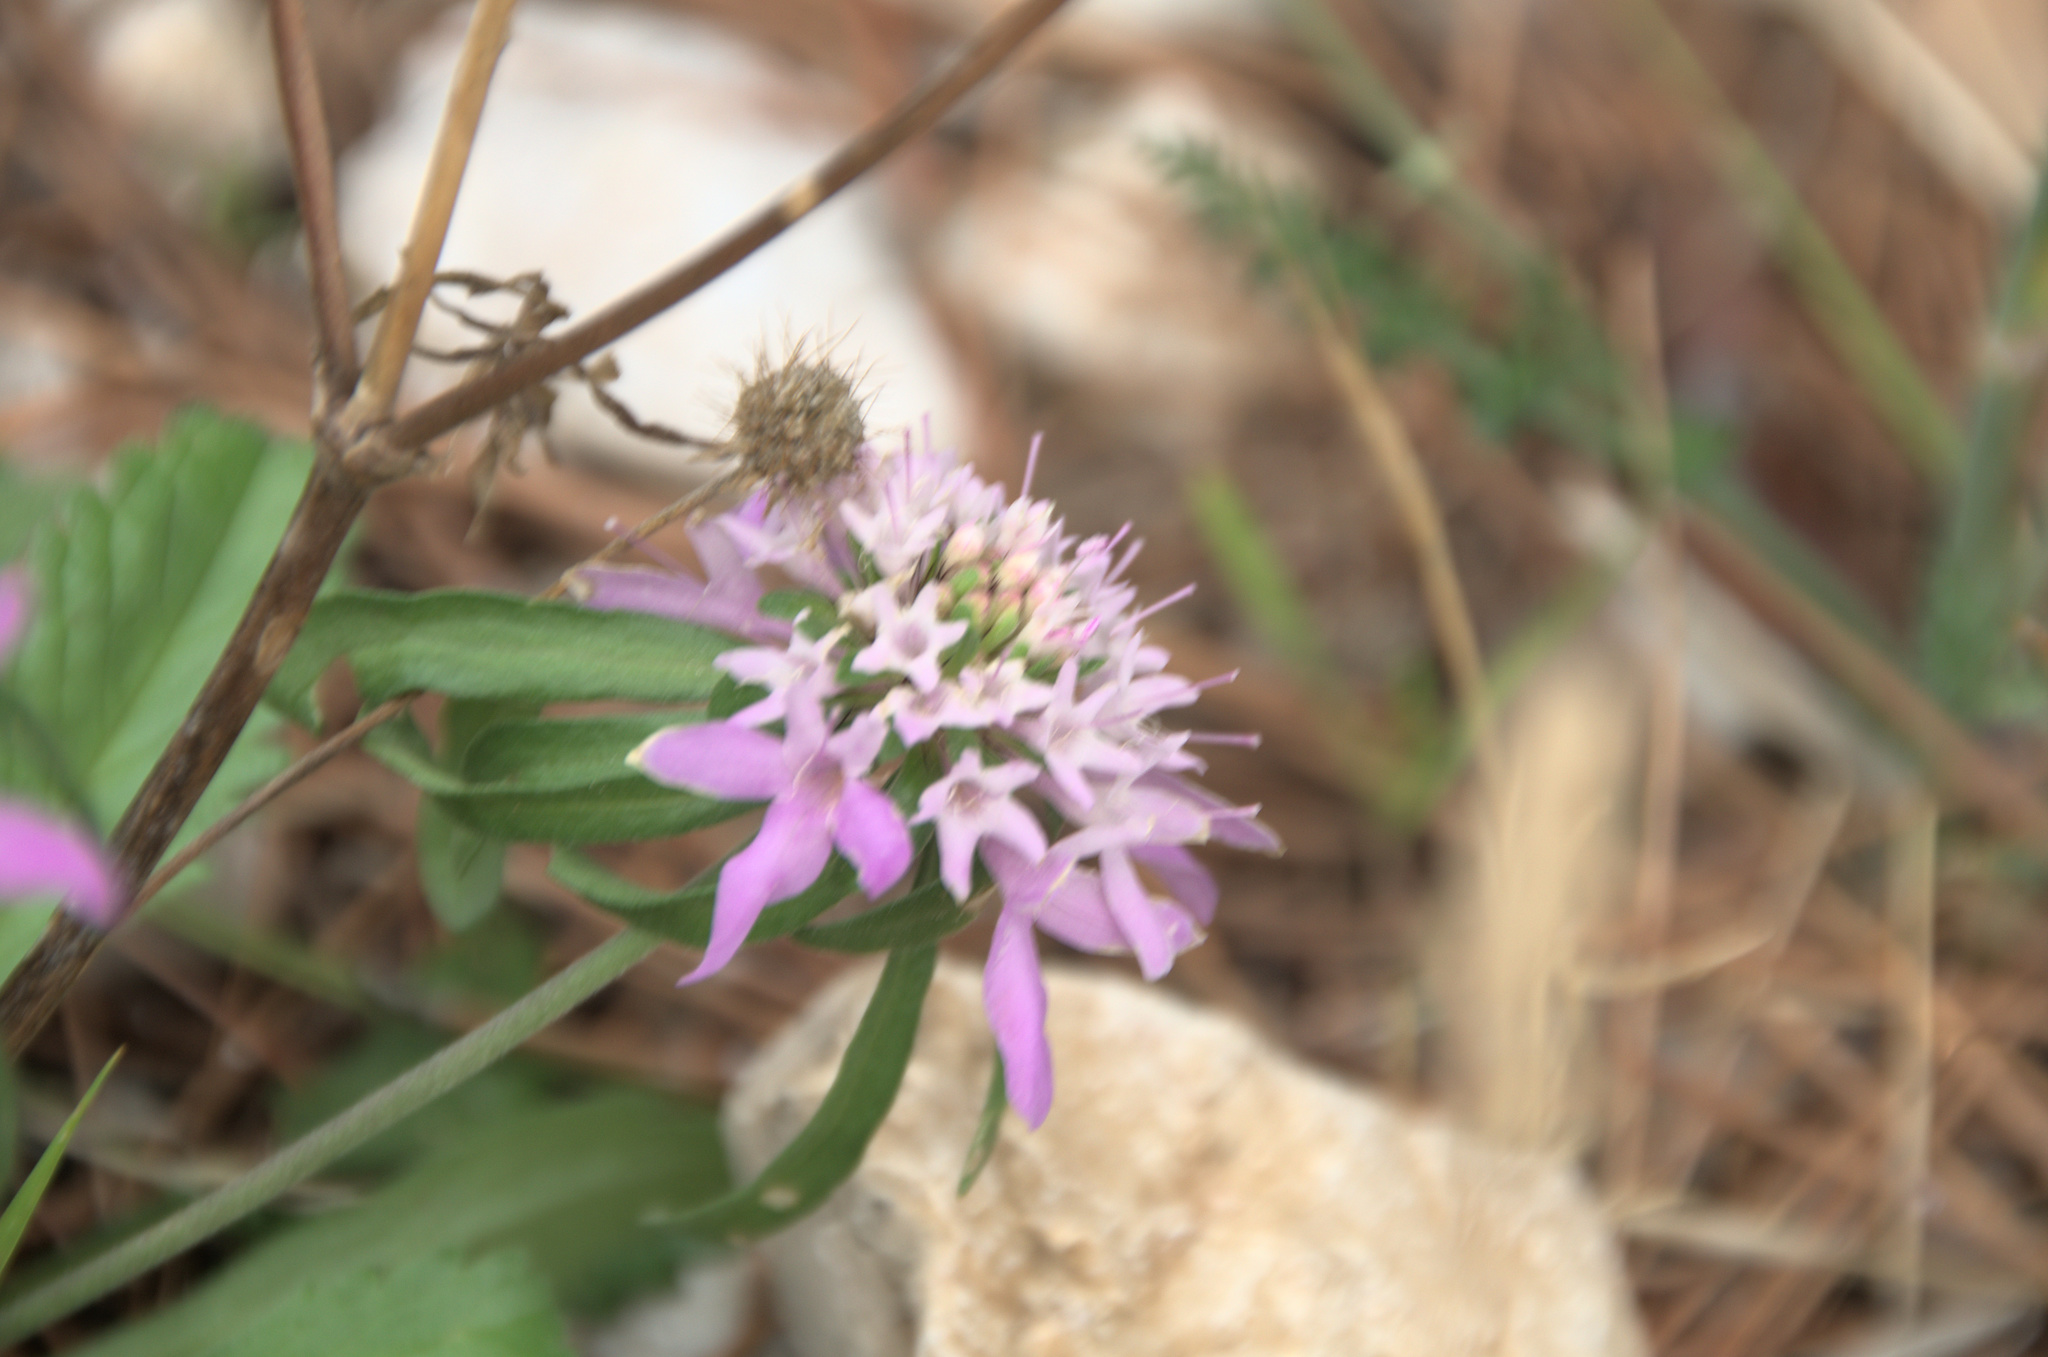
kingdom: Plantae
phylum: Tracheophyta
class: Magnoliopsida
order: Dipsacales
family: Caprifoliaceae
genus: Sixalix
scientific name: Sixalix atropurpurea
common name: Sweet scabious
